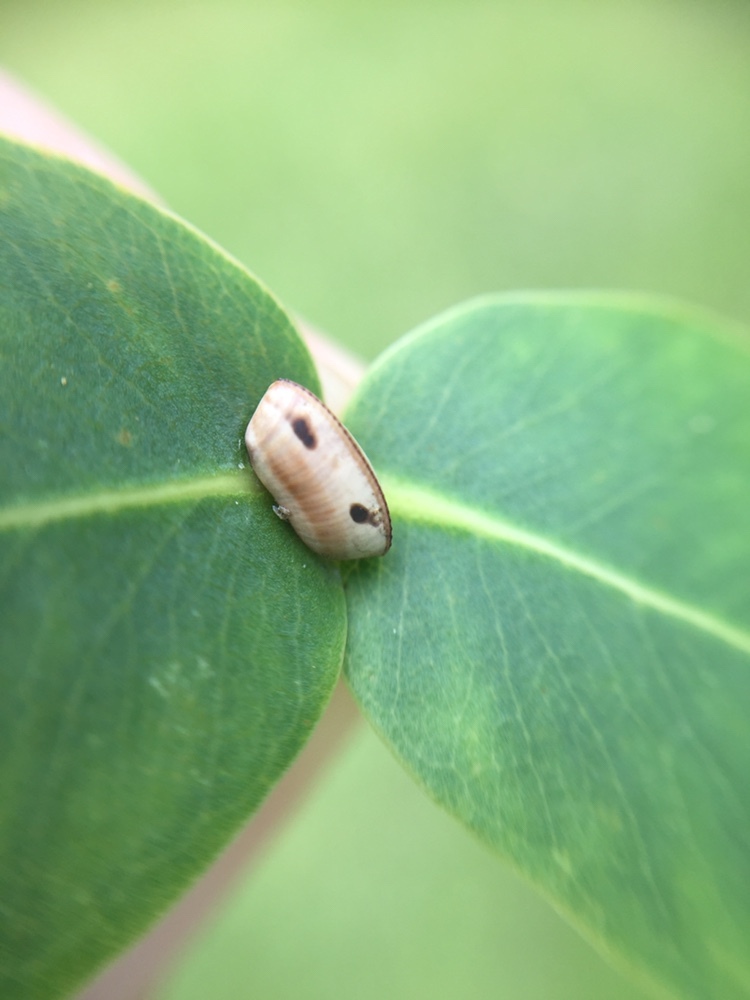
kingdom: Animalia
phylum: Arthropoda
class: Insecta
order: Blattodea
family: Ectobiidae
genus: Balta
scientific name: Balta bicolor
